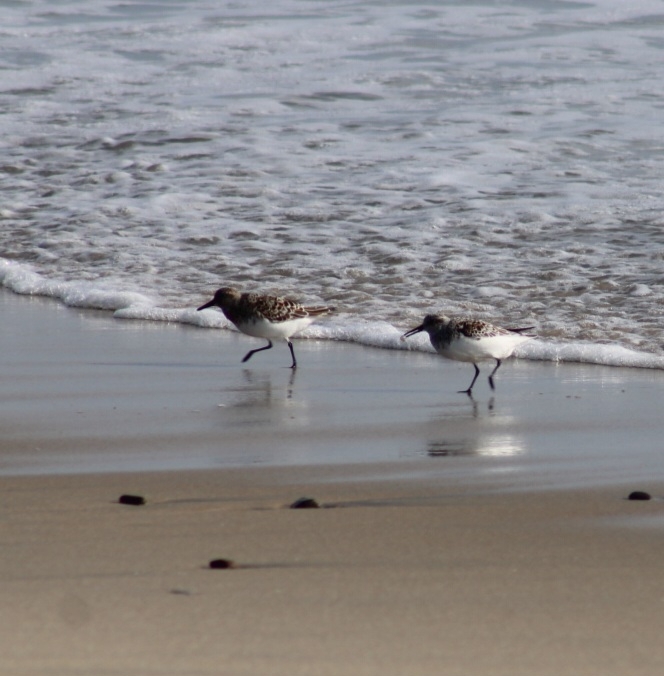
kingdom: Animalia
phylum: Chordata
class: Aves
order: Charadriiformes
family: Scolopacidae
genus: Calidris
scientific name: Calidris alba
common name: Sanderling
